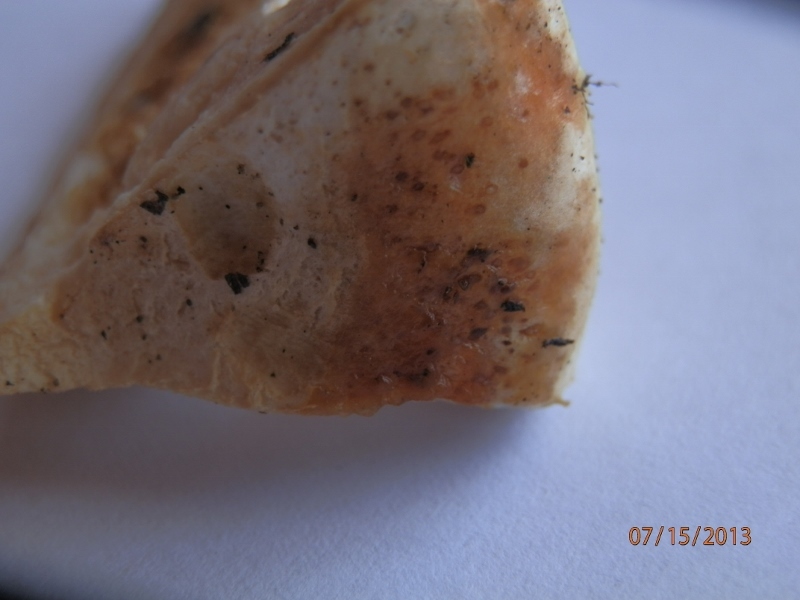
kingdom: Fungi
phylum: Basidiomycota
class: Agaricomycetes
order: Russulales
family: Russulaceae
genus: Lactifluus
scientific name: Lactifluus
